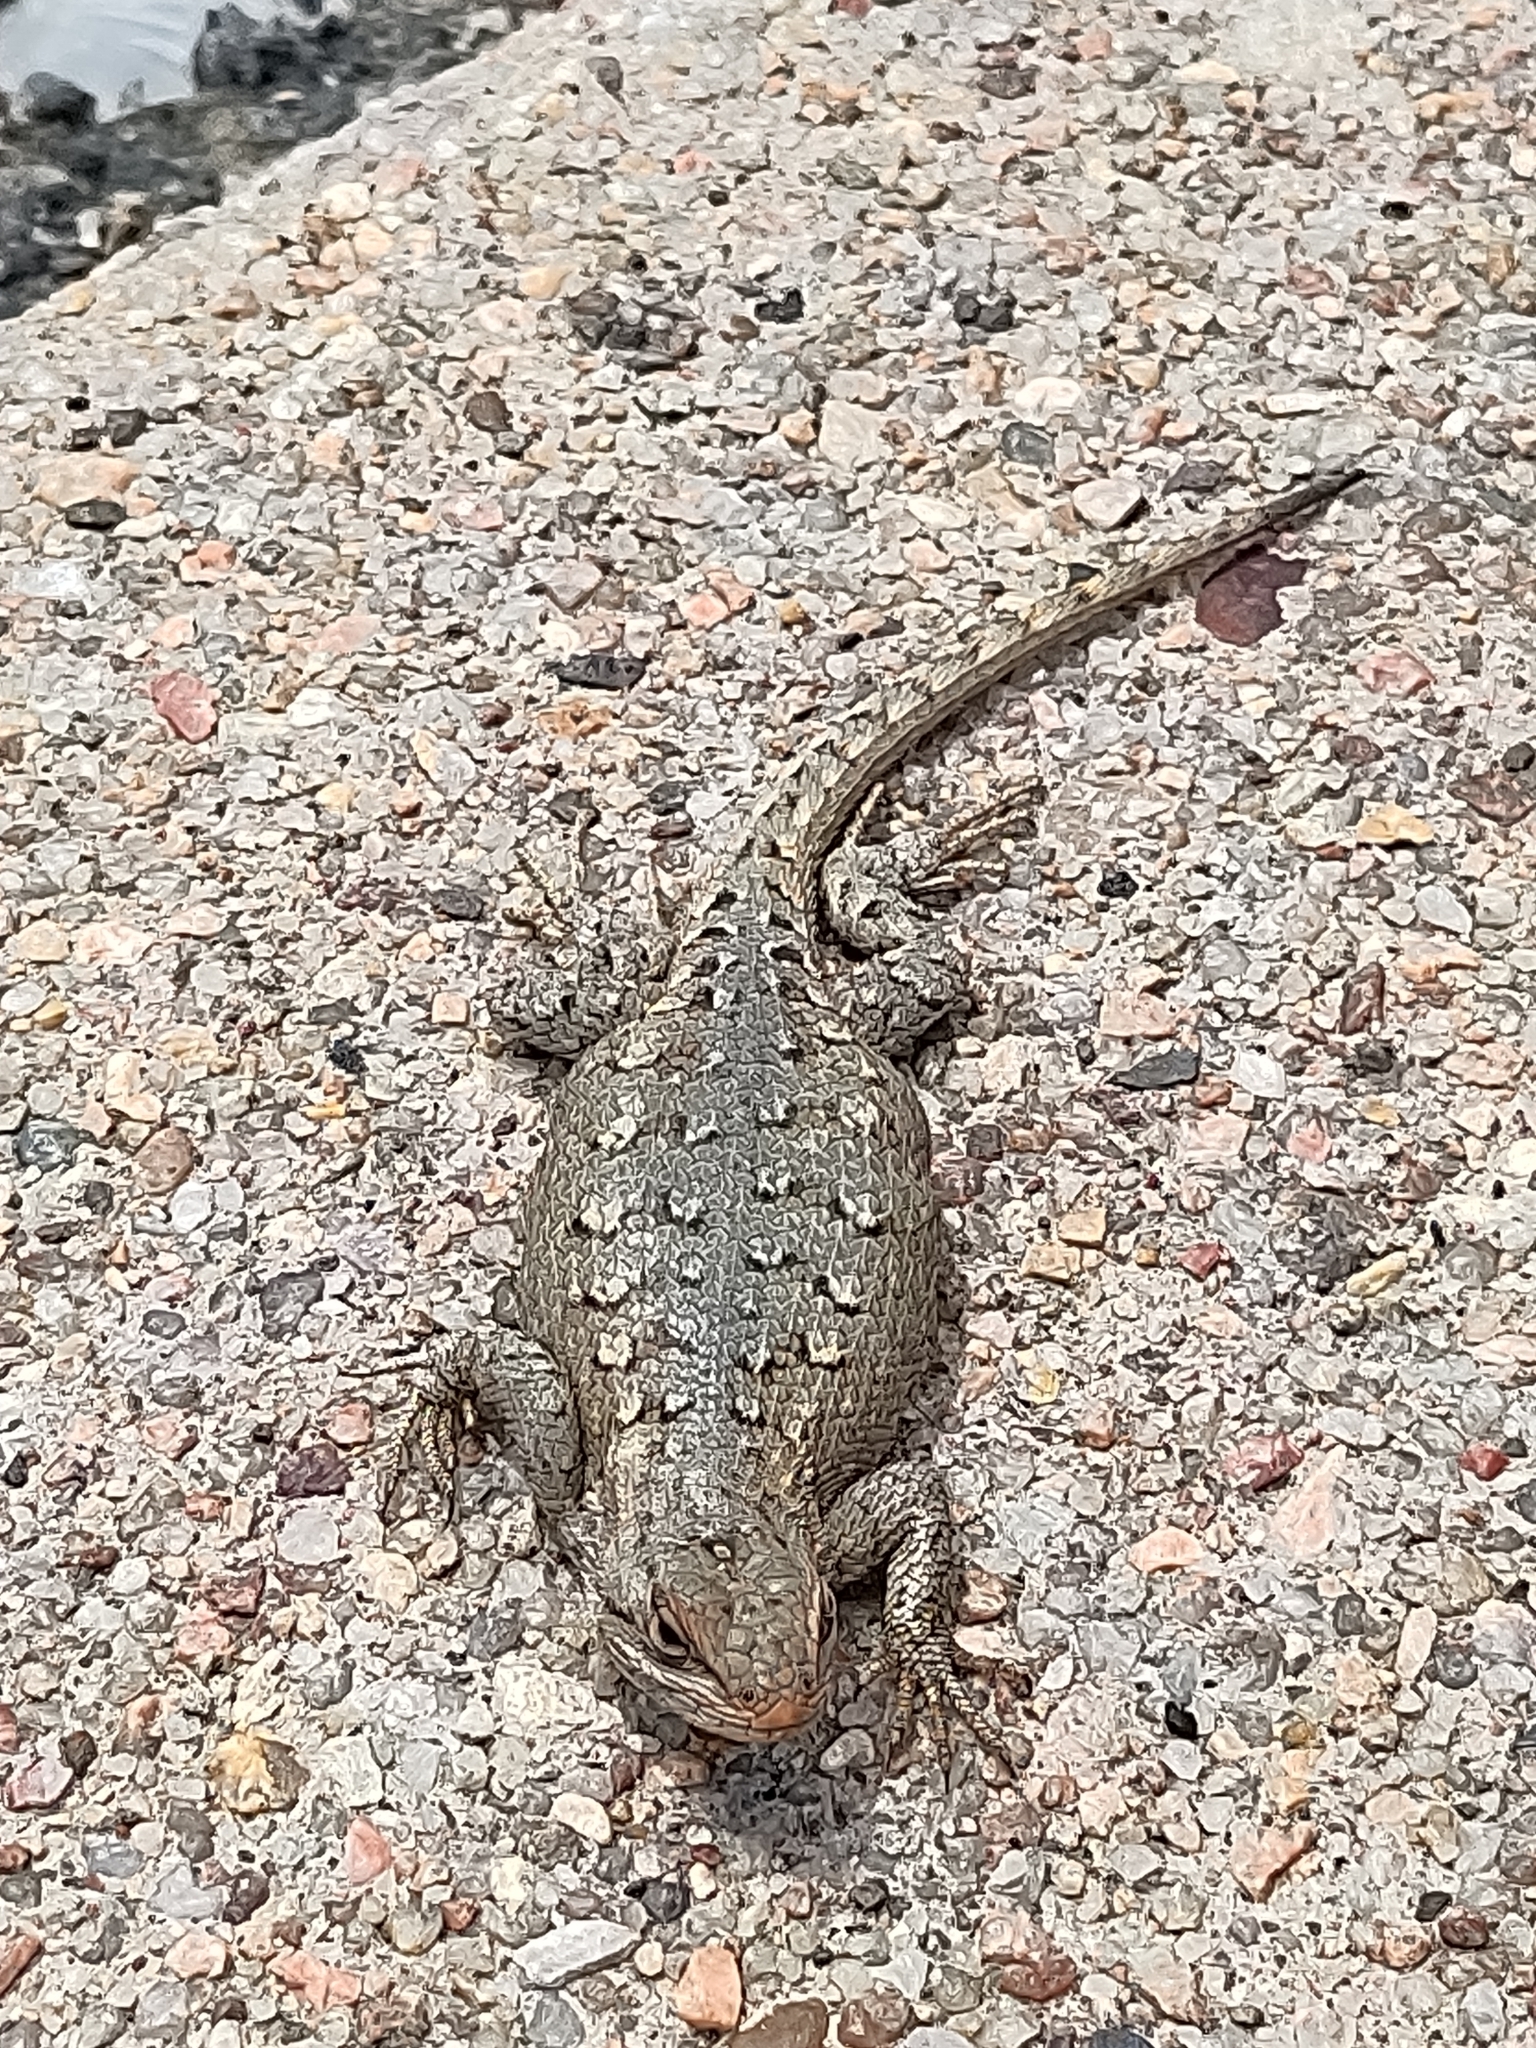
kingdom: Animalia
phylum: Chordata
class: Squamata
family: Phrynosomatidae
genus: Sceloporus
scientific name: Sceloporus consobrinus
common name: Southern prairie lizard
